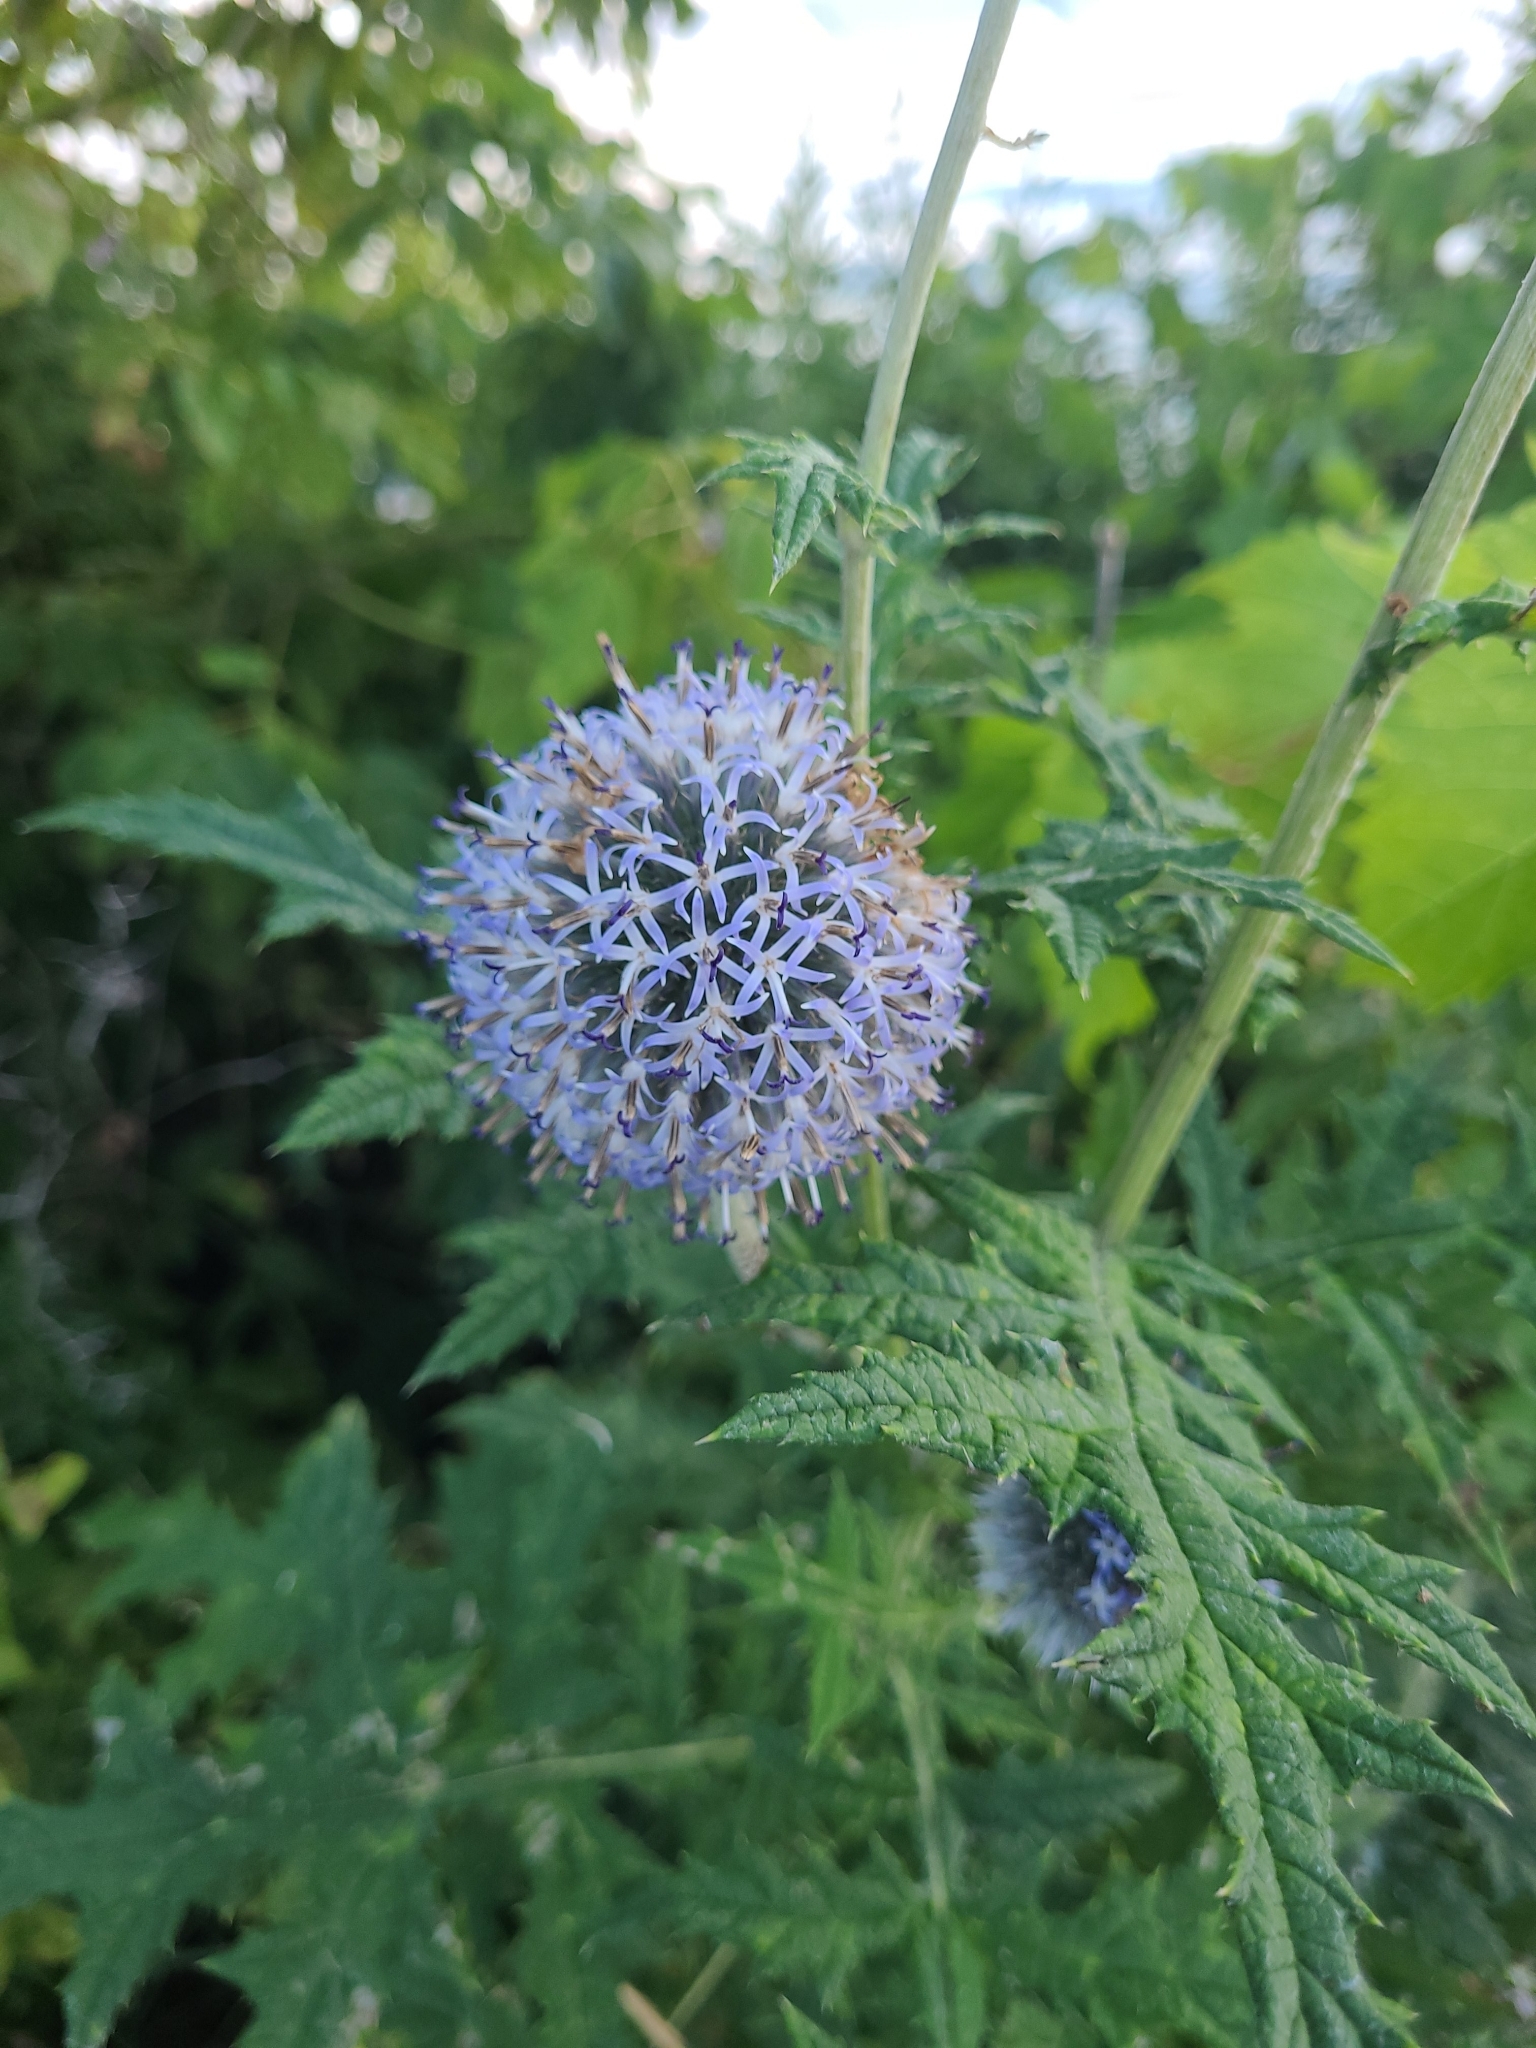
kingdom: Plantae
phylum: Tracheophyta
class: Magnoliopsida
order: Asterales
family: Asteraceae
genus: Echinops
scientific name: Echinops bannaticus
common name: Blue globe-thistle
